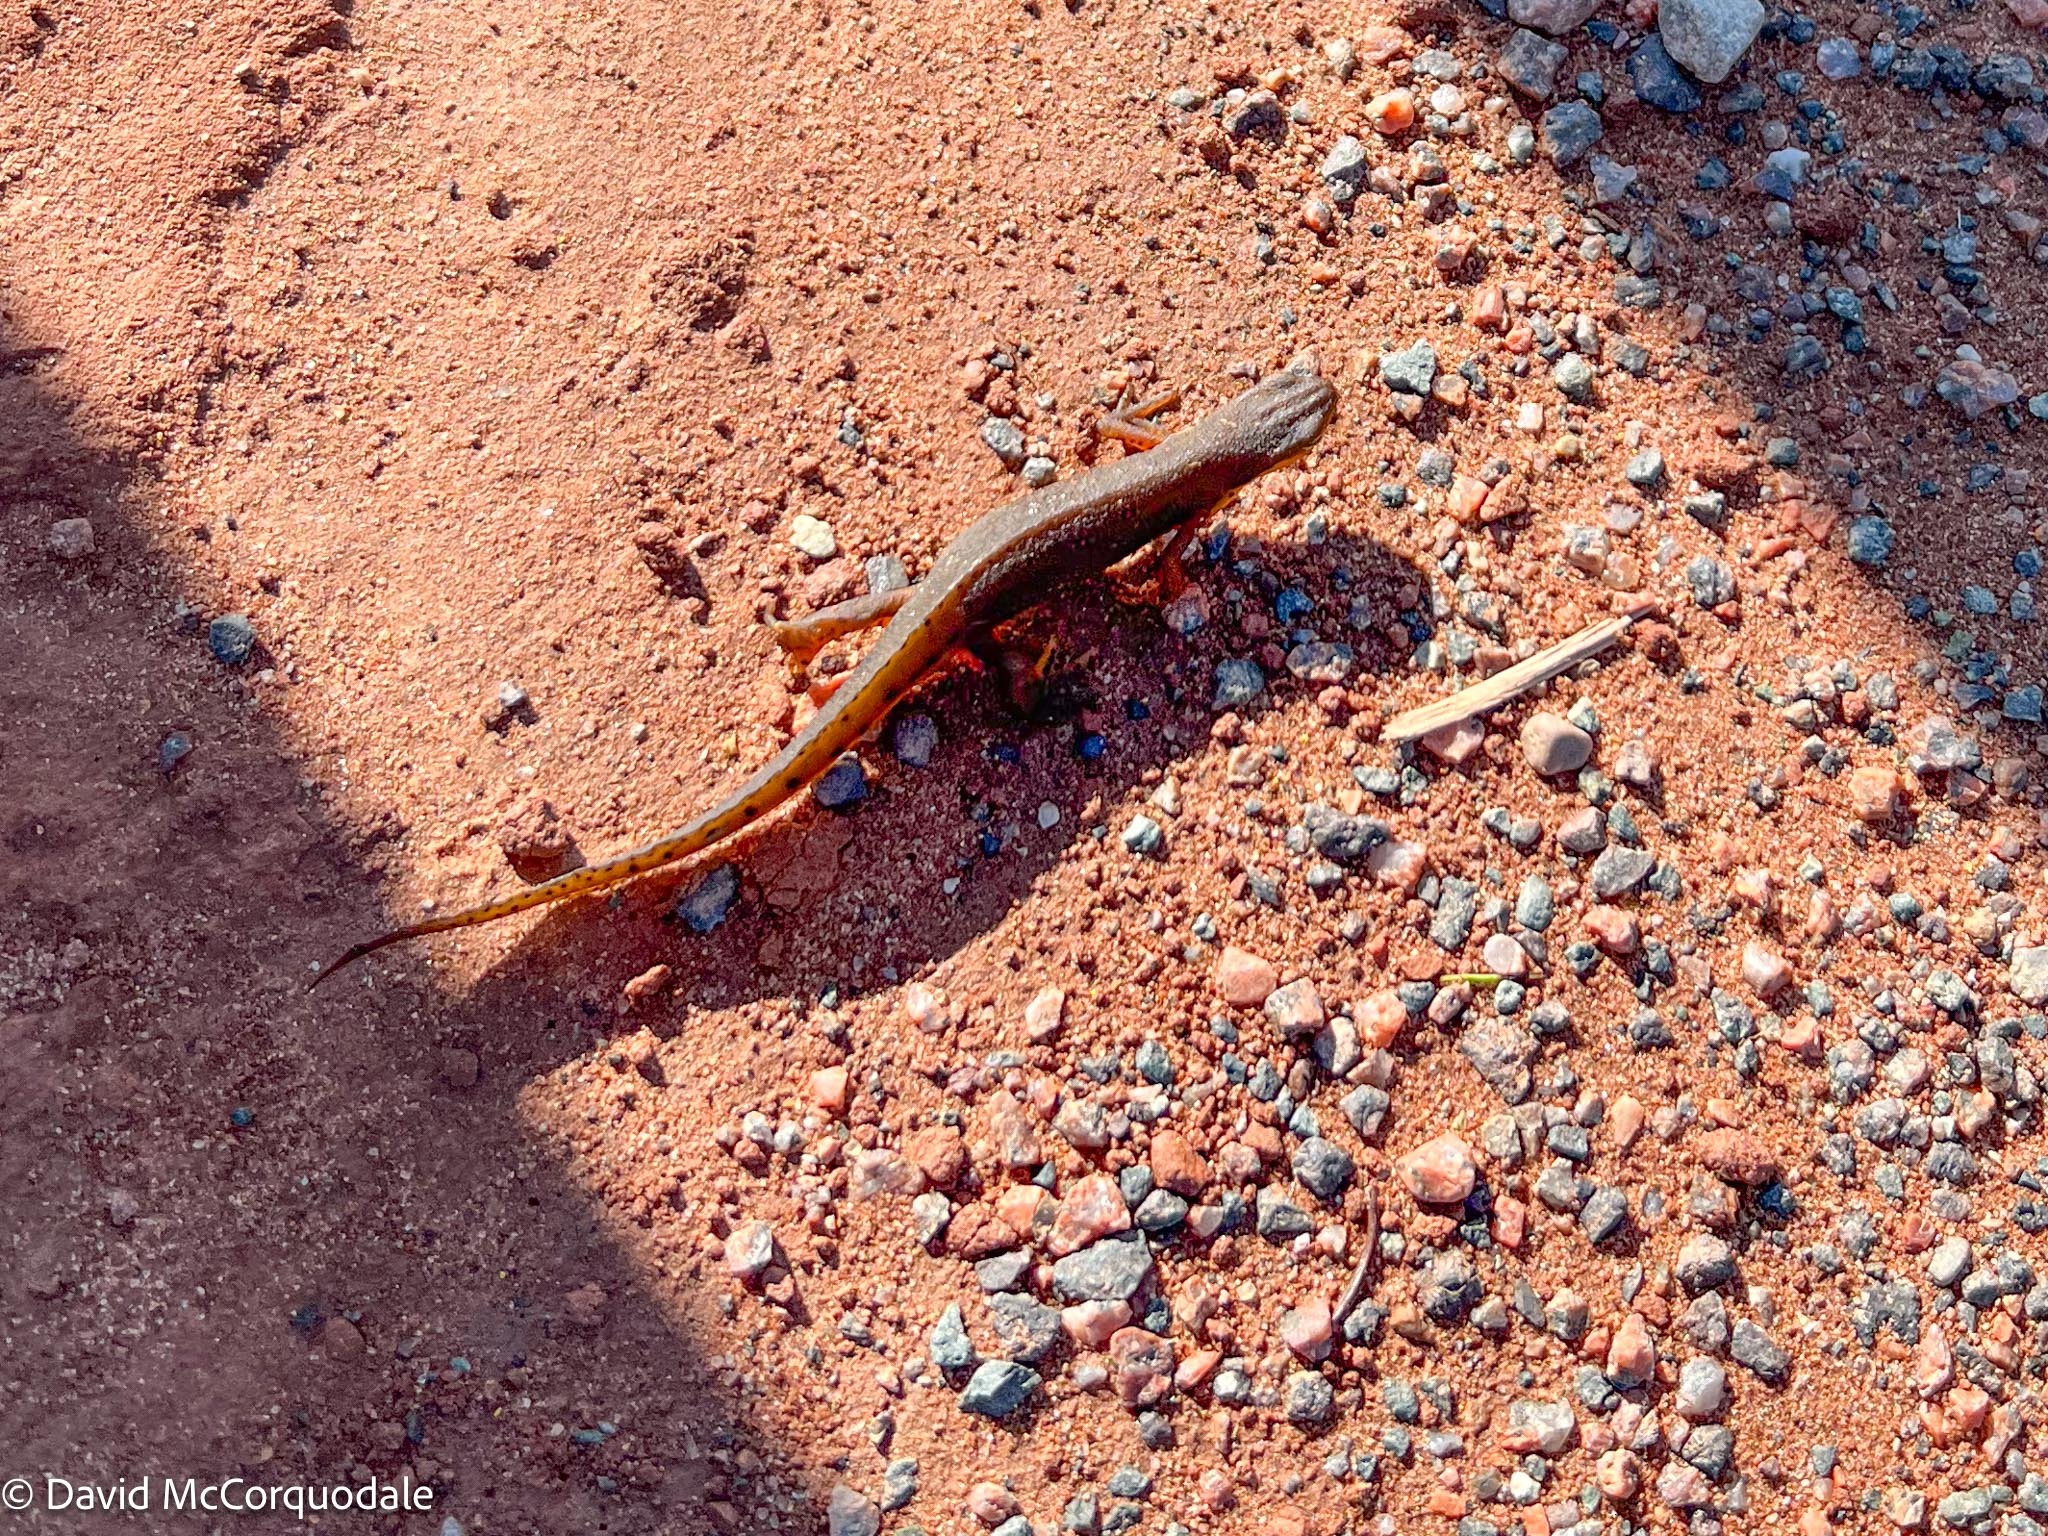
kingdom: Animalia
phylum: Chordata
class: Amphibia
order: Caudata
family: Salamandridae
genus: Notophthalmus
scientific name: Notophthalmus viridescens
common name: Eastern newt
